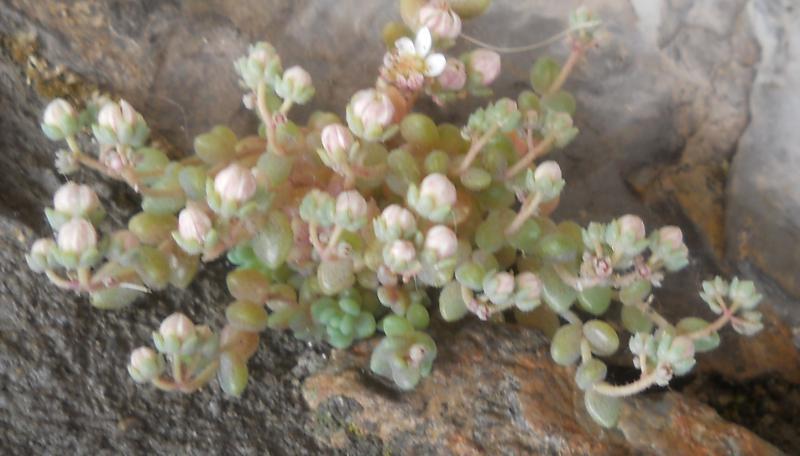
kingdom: Plantae
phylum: Tracheophyta
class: Magnoliopsida
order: Saxifragales
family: Crassulaceae
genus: Sedum
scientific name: Sedum dasyphyllum
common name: Thick-leaf stonecrop
